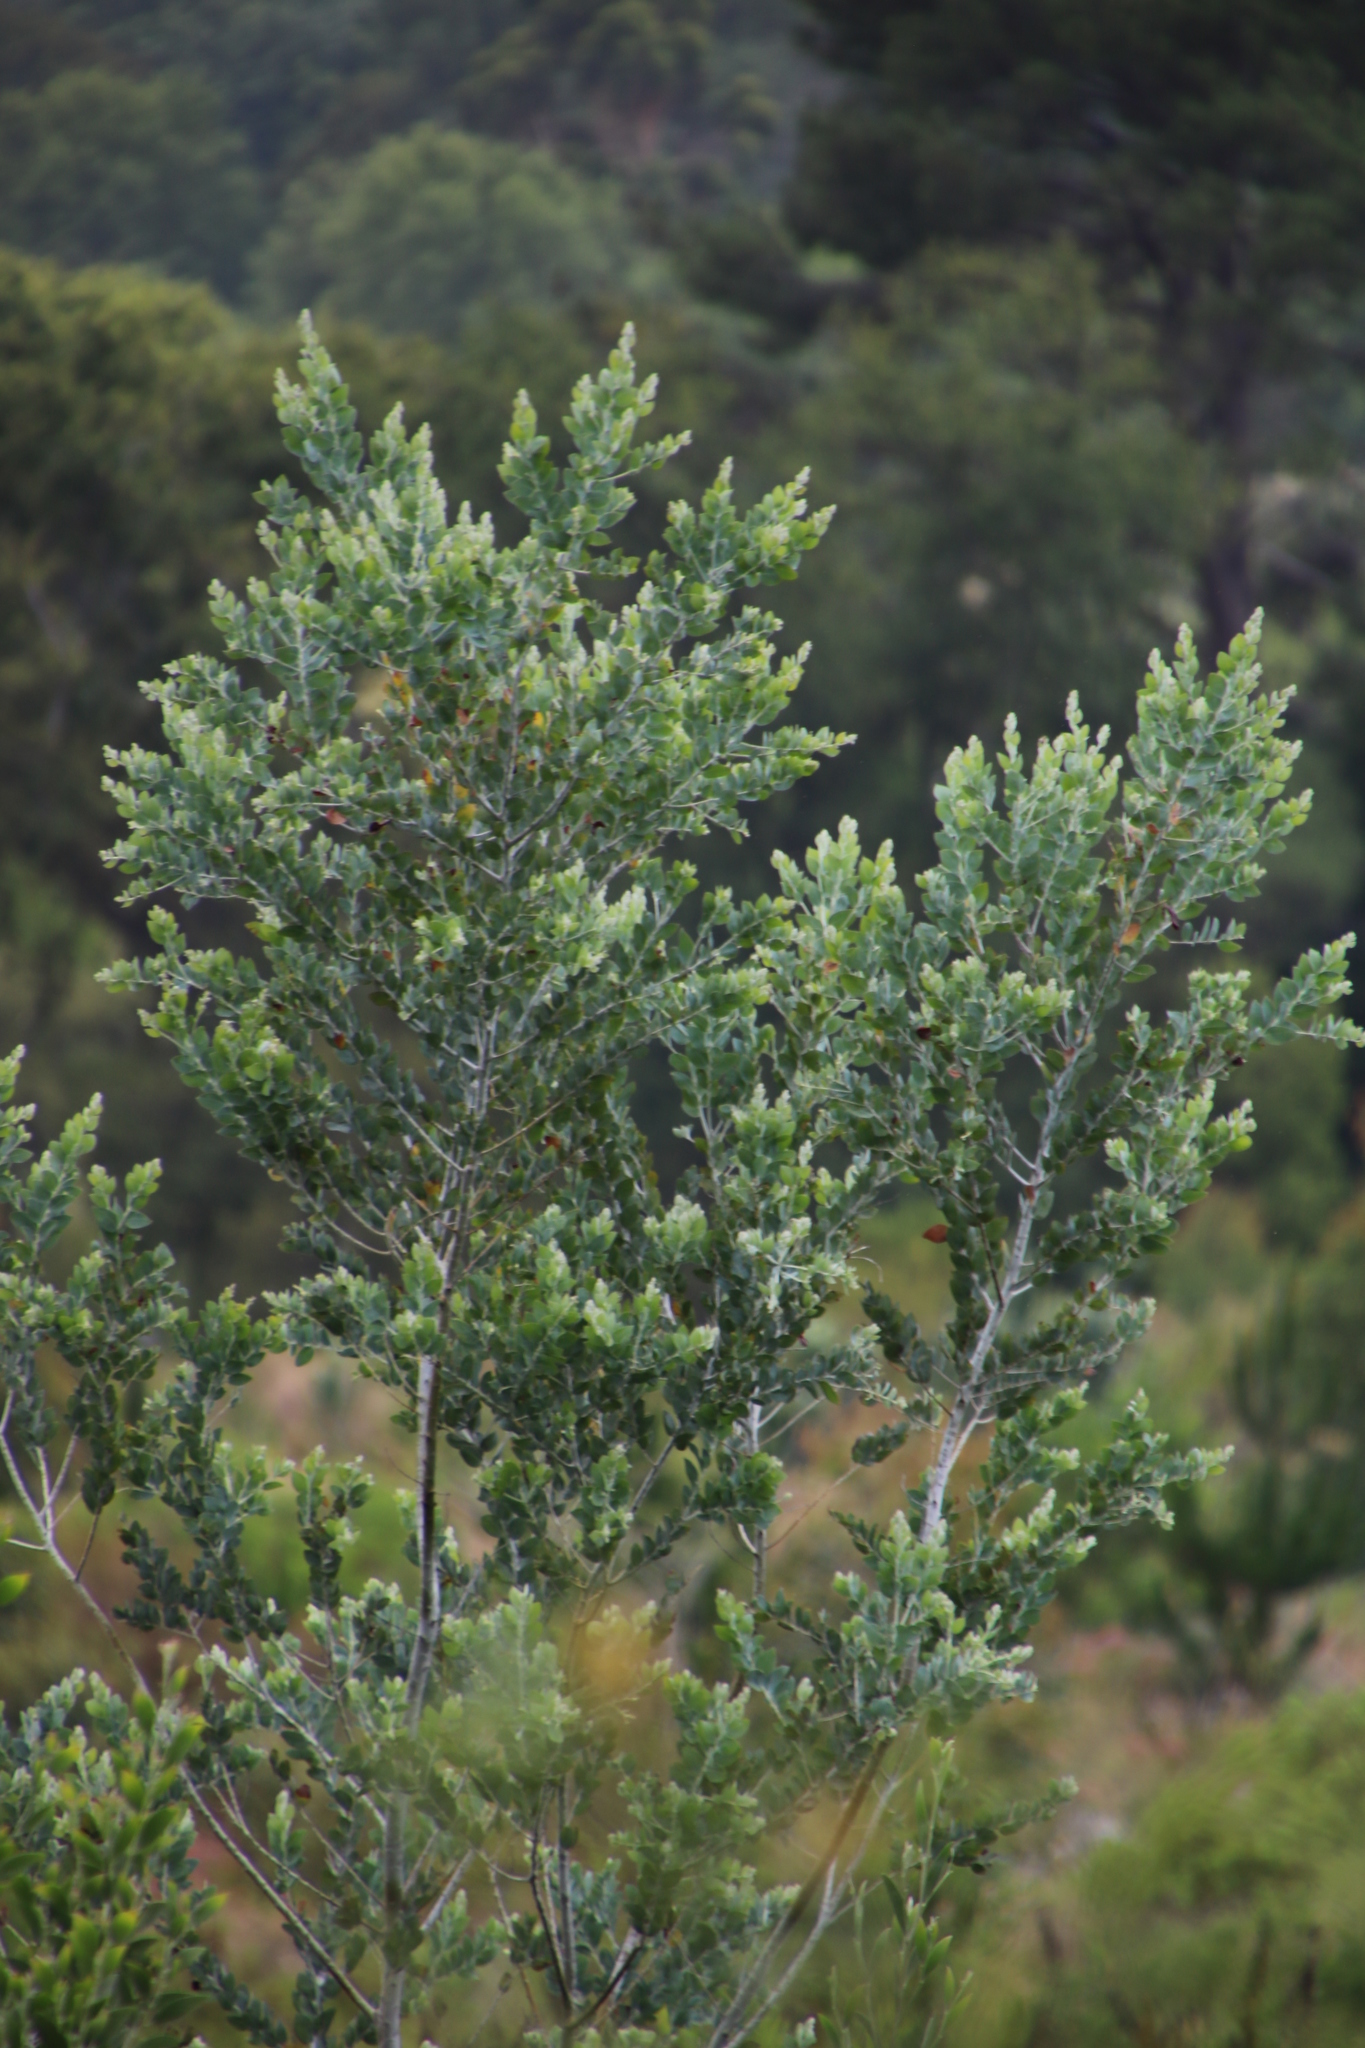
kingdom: Plantae
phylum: Tracheophyta
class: Magnoliopsida
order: Fabales
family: Fabaceae
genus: Acacia
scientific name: Acacia podalyriifolia
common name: Pearl wattle
